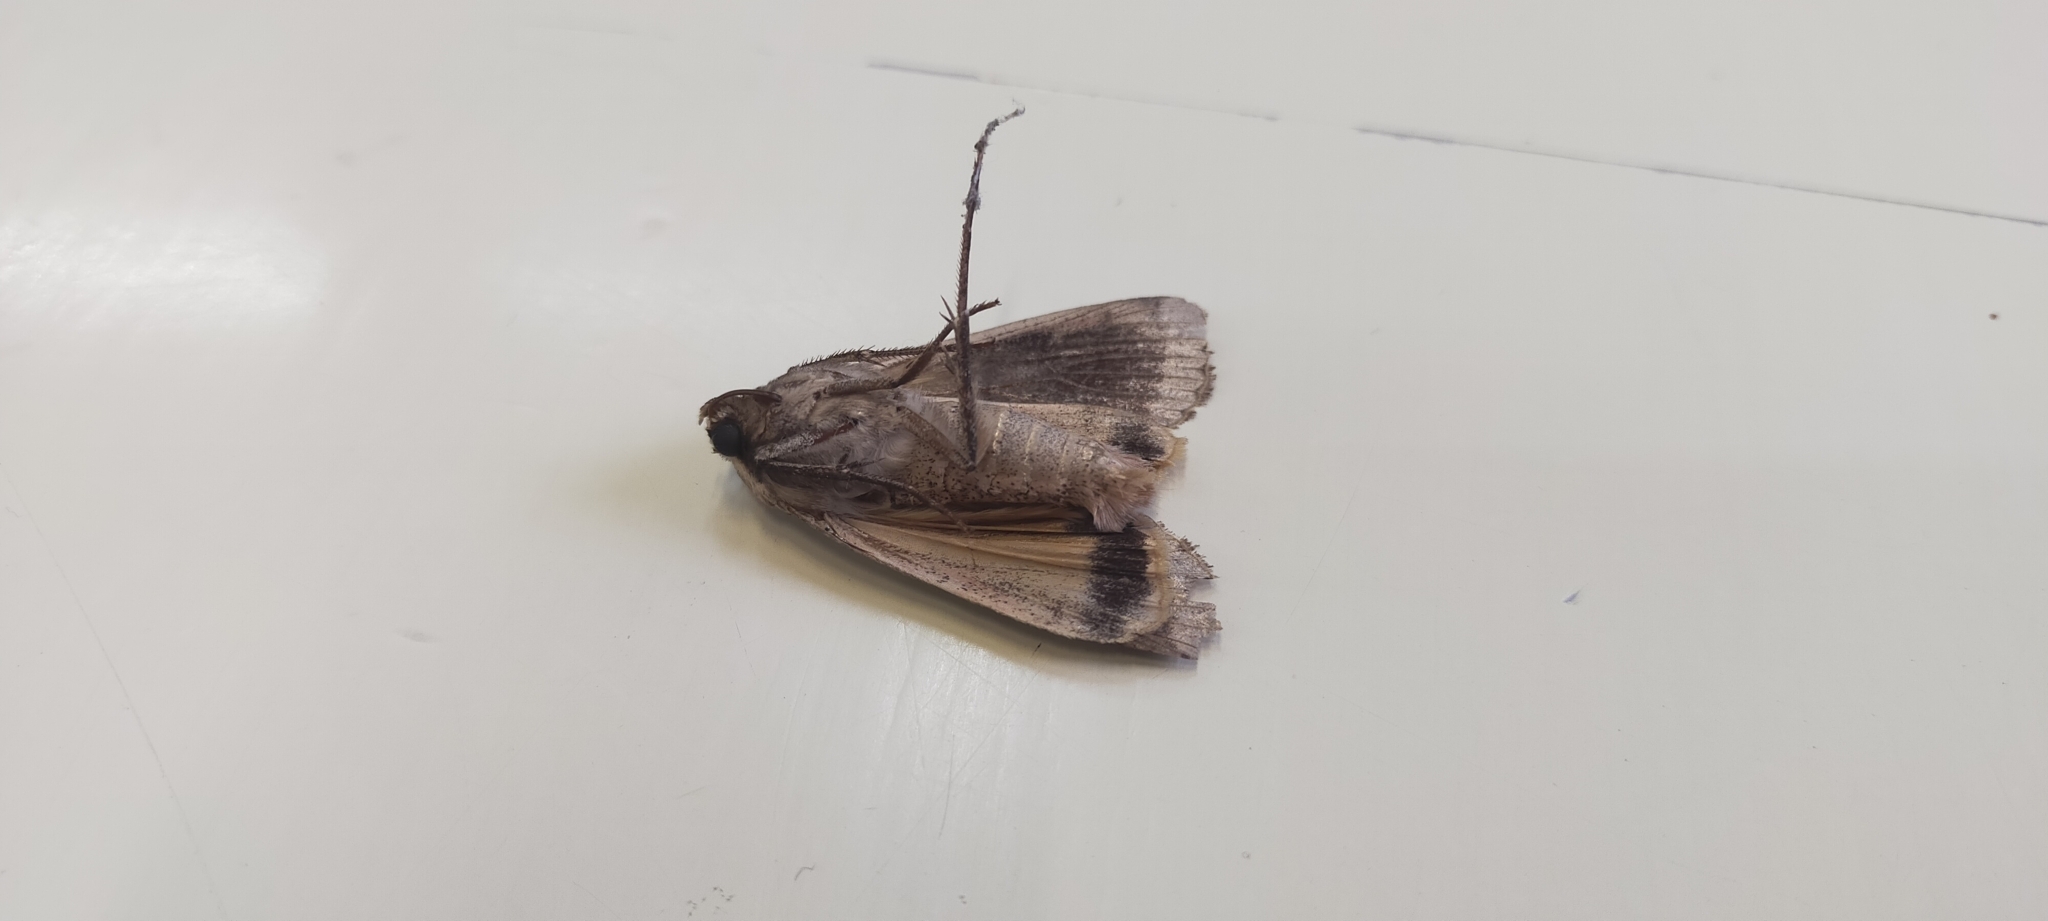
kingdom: Animalia
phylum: Arthropoda
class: Insecta
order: Lepidoptera
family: Noctuidae
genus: Noctua
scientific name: Noctua pronuba
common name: Large yellow underwing
